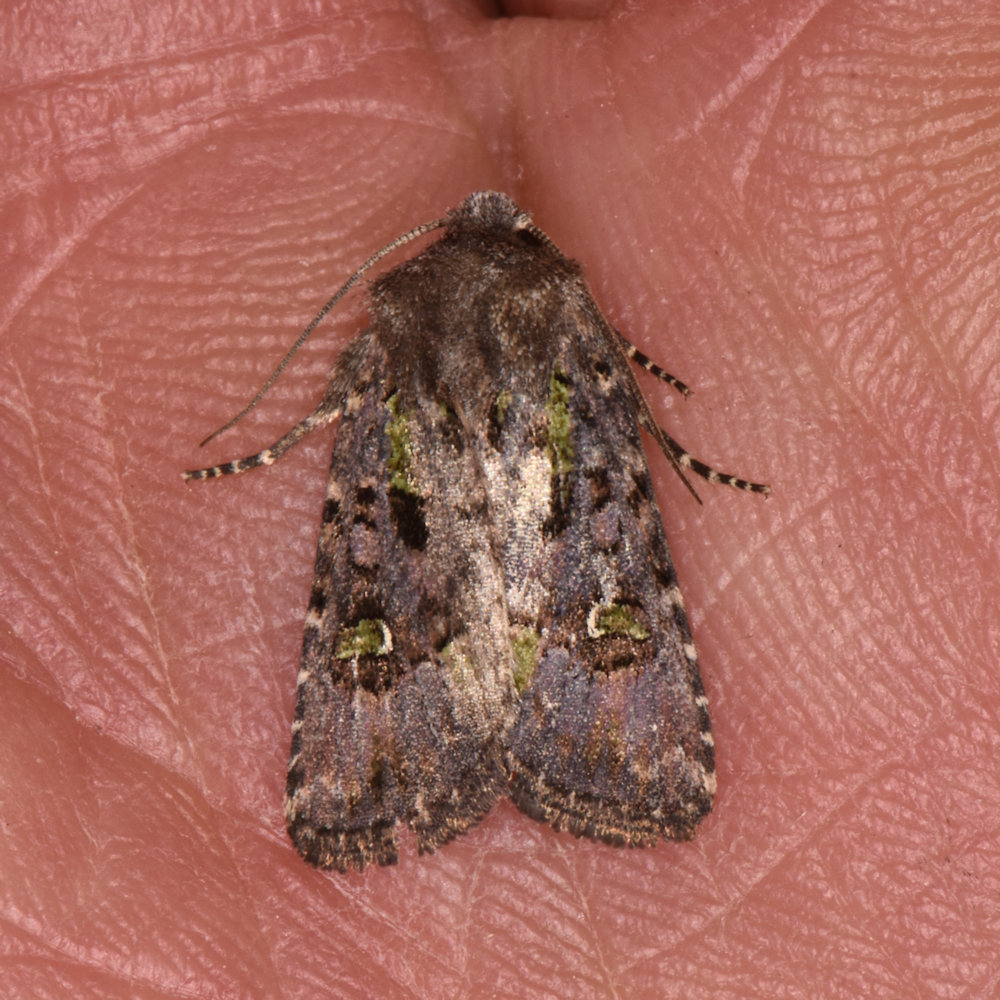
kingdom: Animalia
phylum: Arthropoda
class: Insecta
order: Lepidoptera
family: Noctuidae
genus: Lacinipolia
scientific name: Lacinipolia renigera
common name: Kidney-spotted minor
